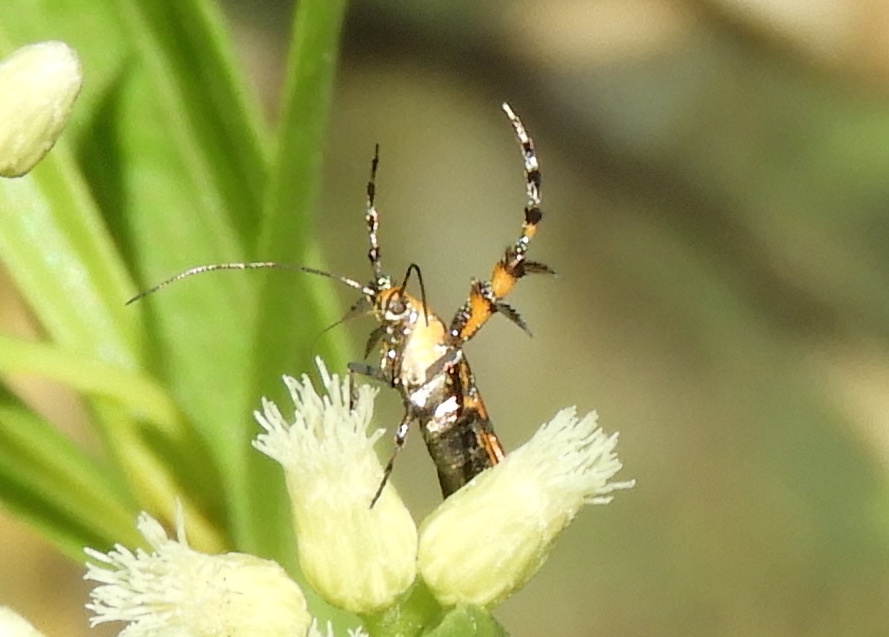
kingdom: Animalia
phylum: Arthropoda
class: Insecta
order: Lepidoptera
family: Heliodinidae
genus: Heliodines
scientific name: Heliodines
